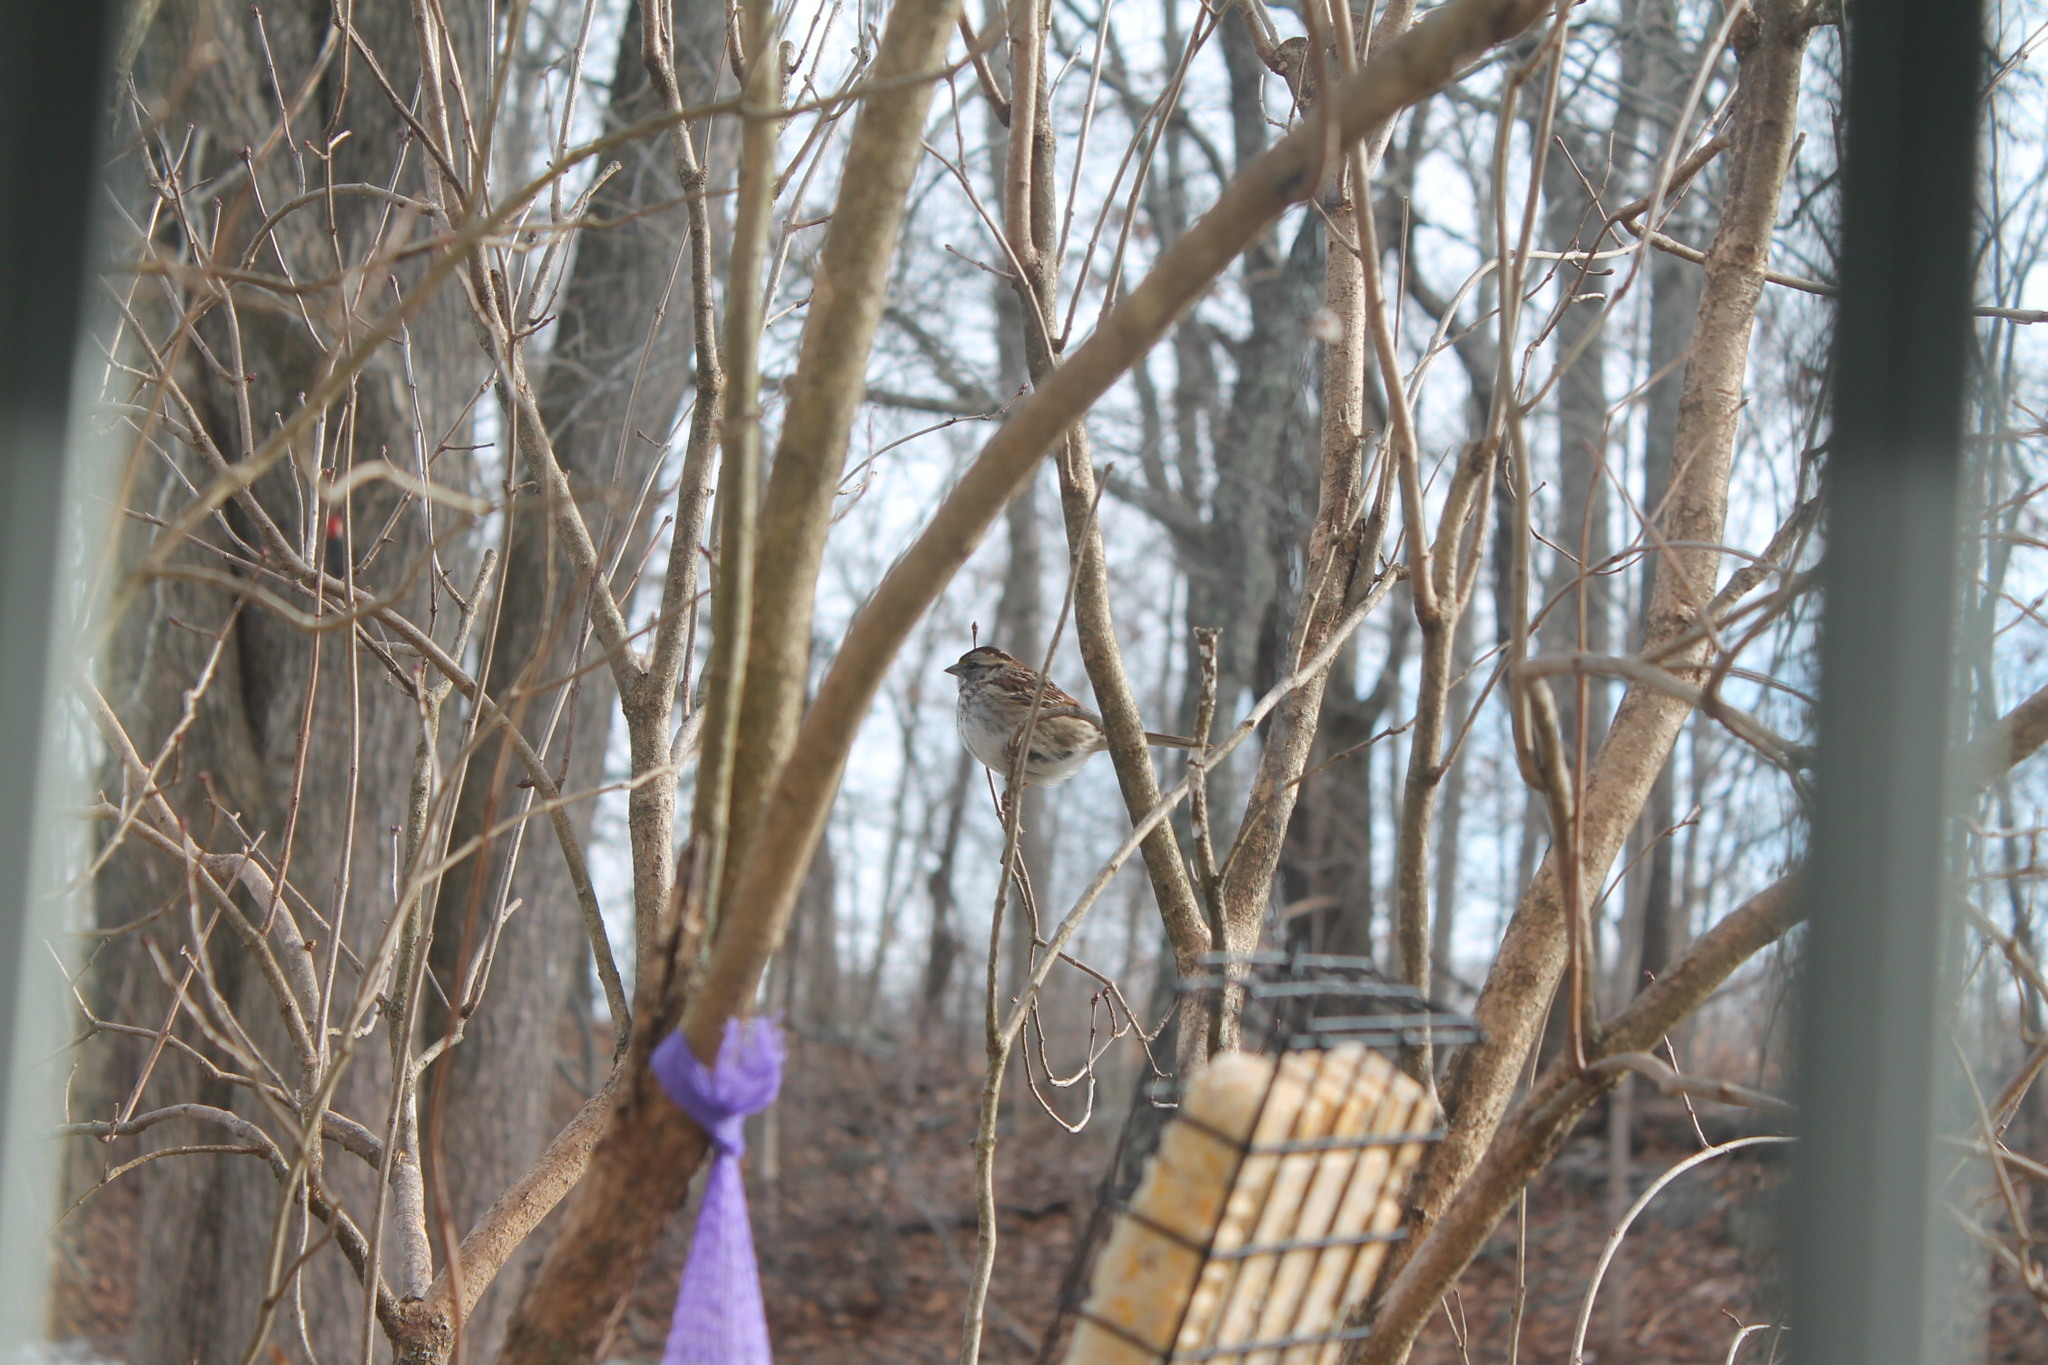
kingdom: Animalia
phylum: Chordata
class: Aves
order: Passeriformes
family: Passerellidae
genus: Zonotrichia
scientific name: Zonotrichia albicollis
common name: White-throated sparrow
